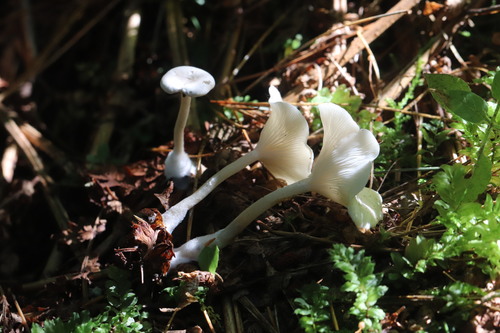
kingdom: Fungi
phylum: Basidiomycota
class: Agaricomycetes
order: Agaricales
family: Tricholomataceae
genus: Clitocybe
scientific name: Clitocybe
